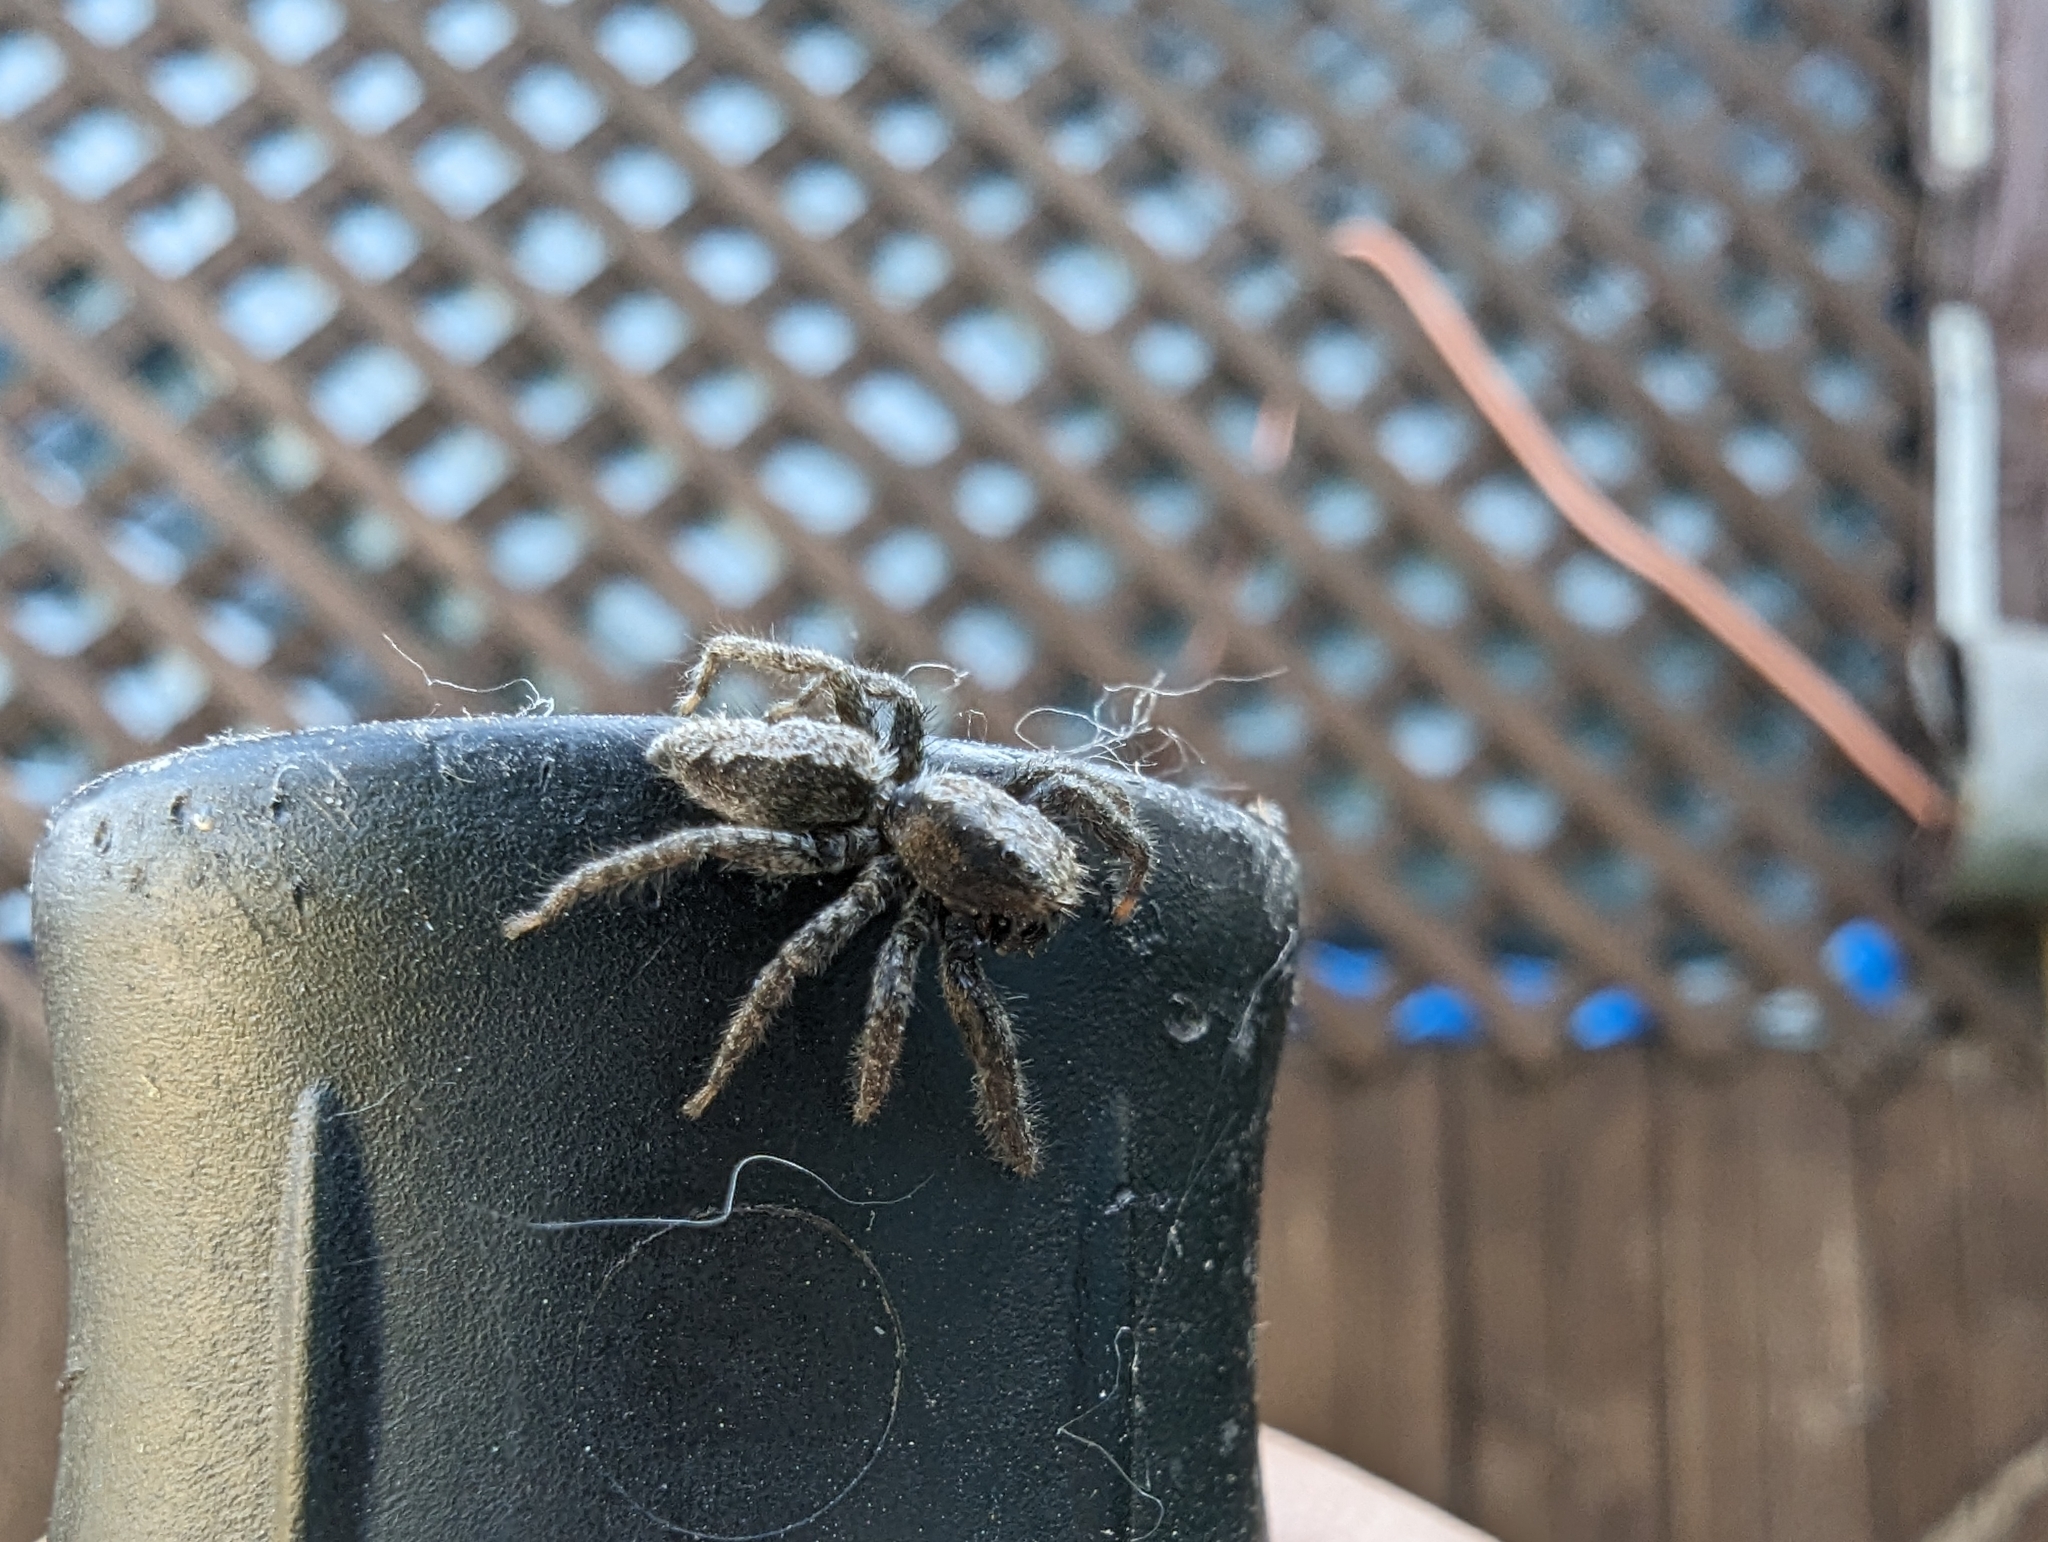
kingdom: Animalia
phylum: Arthropoda
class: Arachnida
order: Araneae
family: Salticidae
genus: Platycryptus
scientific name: Platycryptus californicus
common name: Jumping spiders
